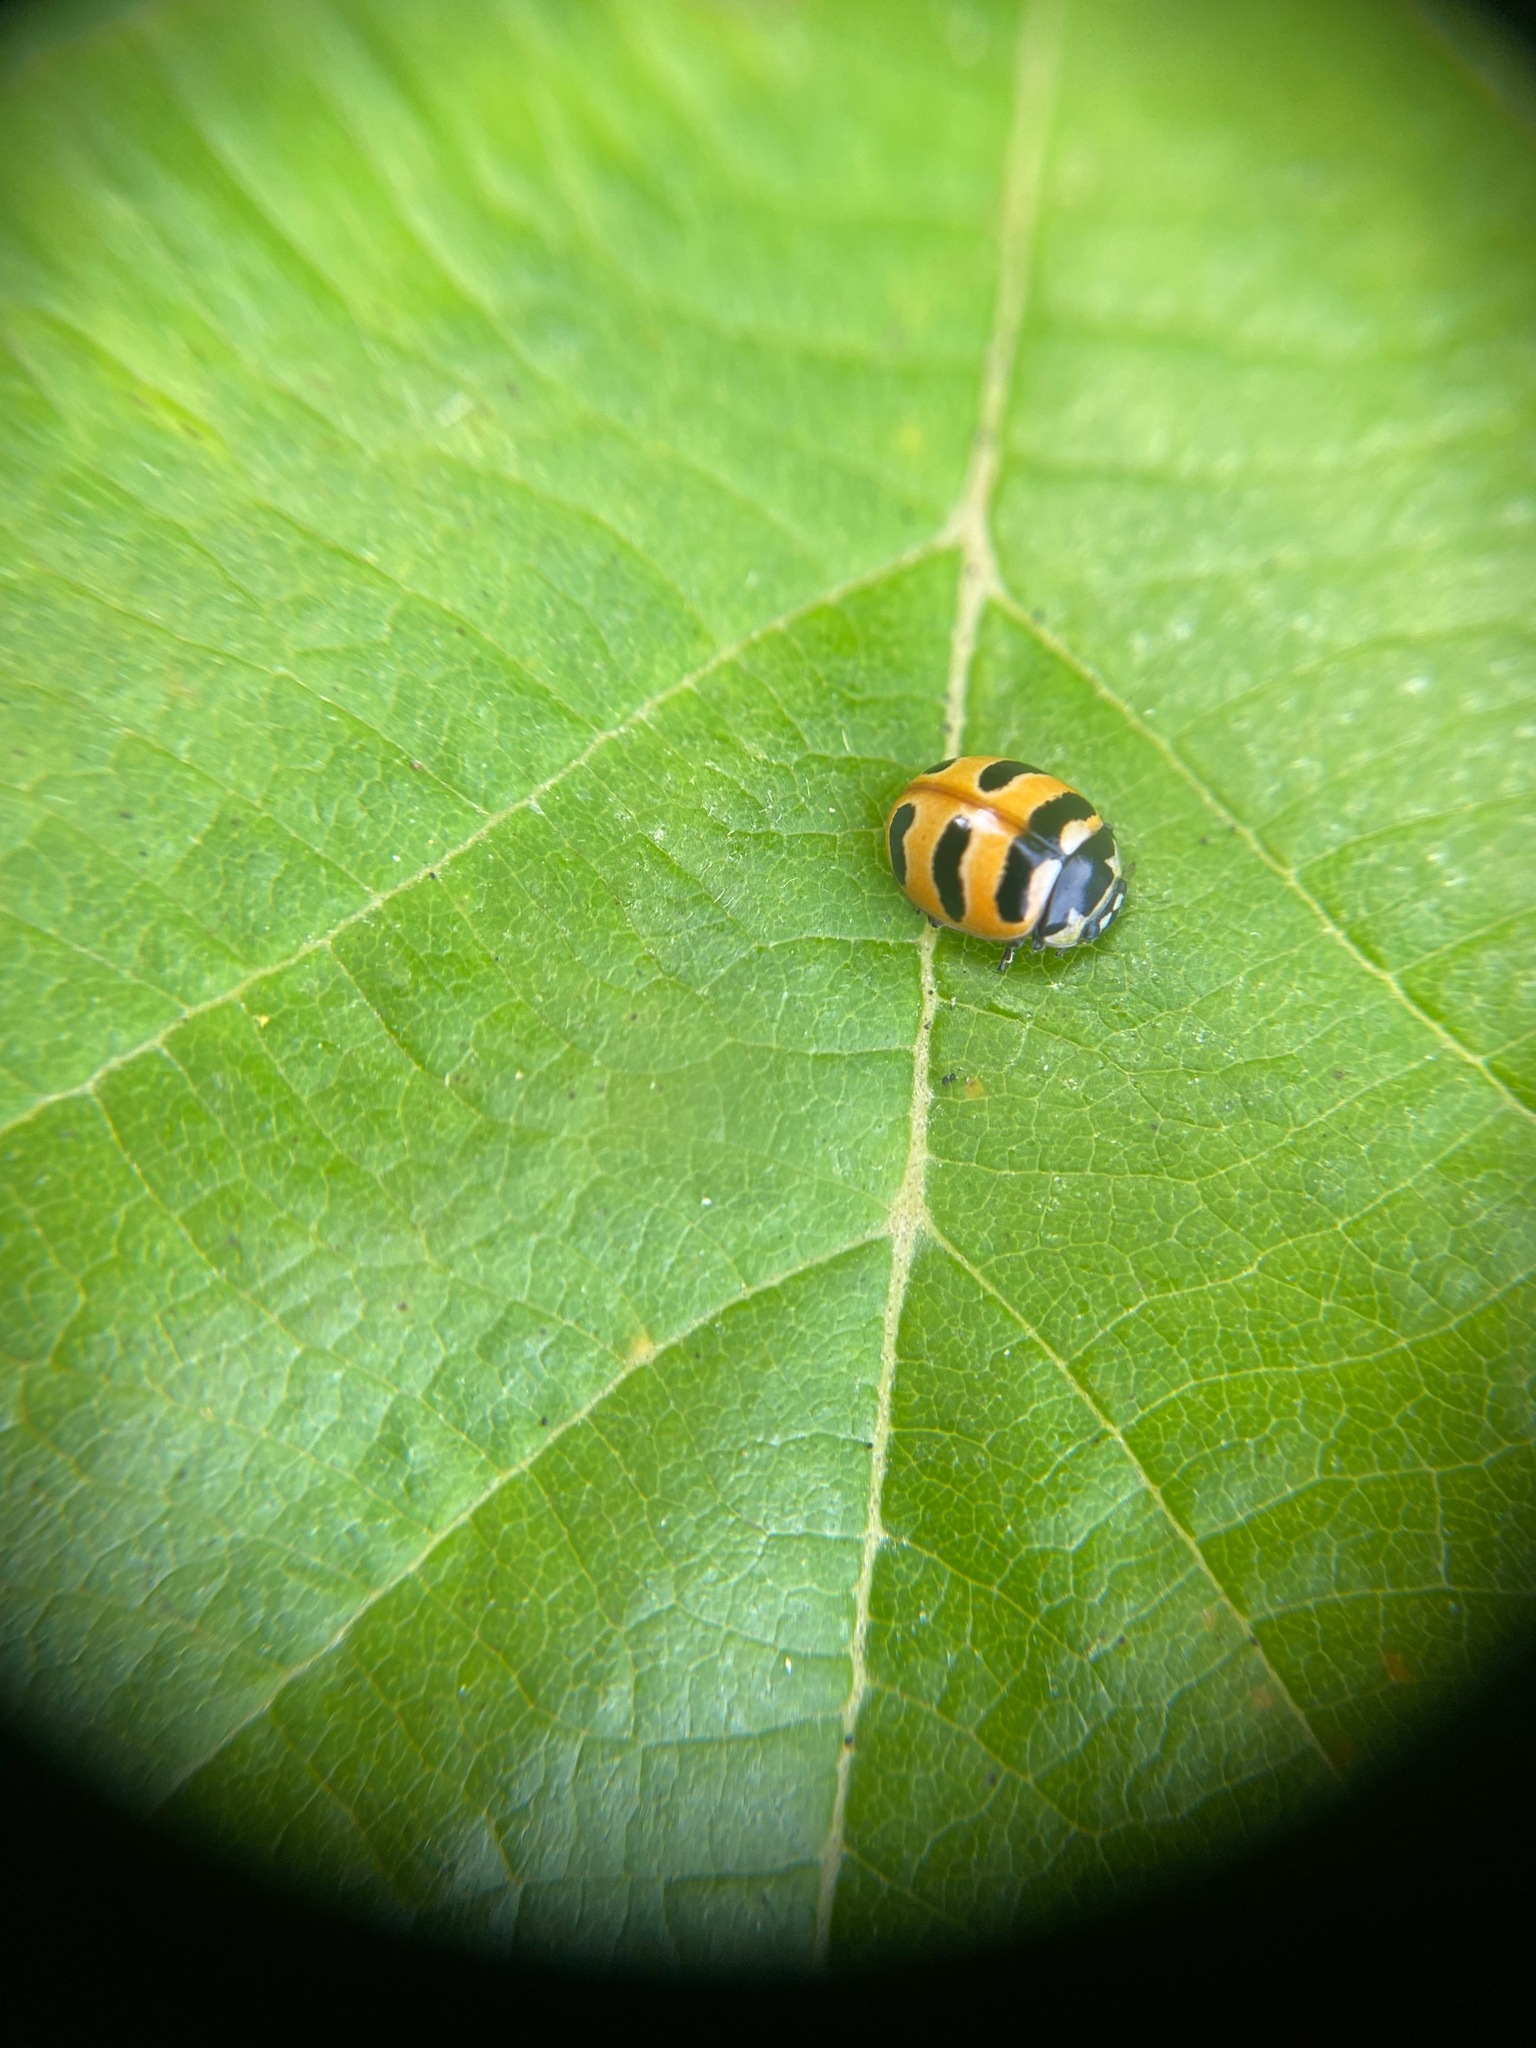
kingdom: Animalia
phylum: Arthropoda
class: Insecta
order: Coleoptera
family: Coccinellidae
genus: Coccinella
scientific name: Coccinella trifasciata
